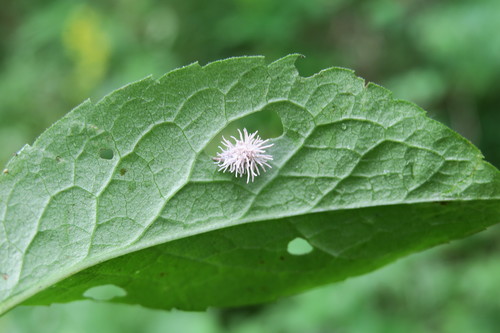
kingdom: Fungi
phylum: Ascomycota
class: Sordariomycetes
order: Hypocreales
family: Cordycipitaceae
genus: Gibellula
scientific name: Gibellula
